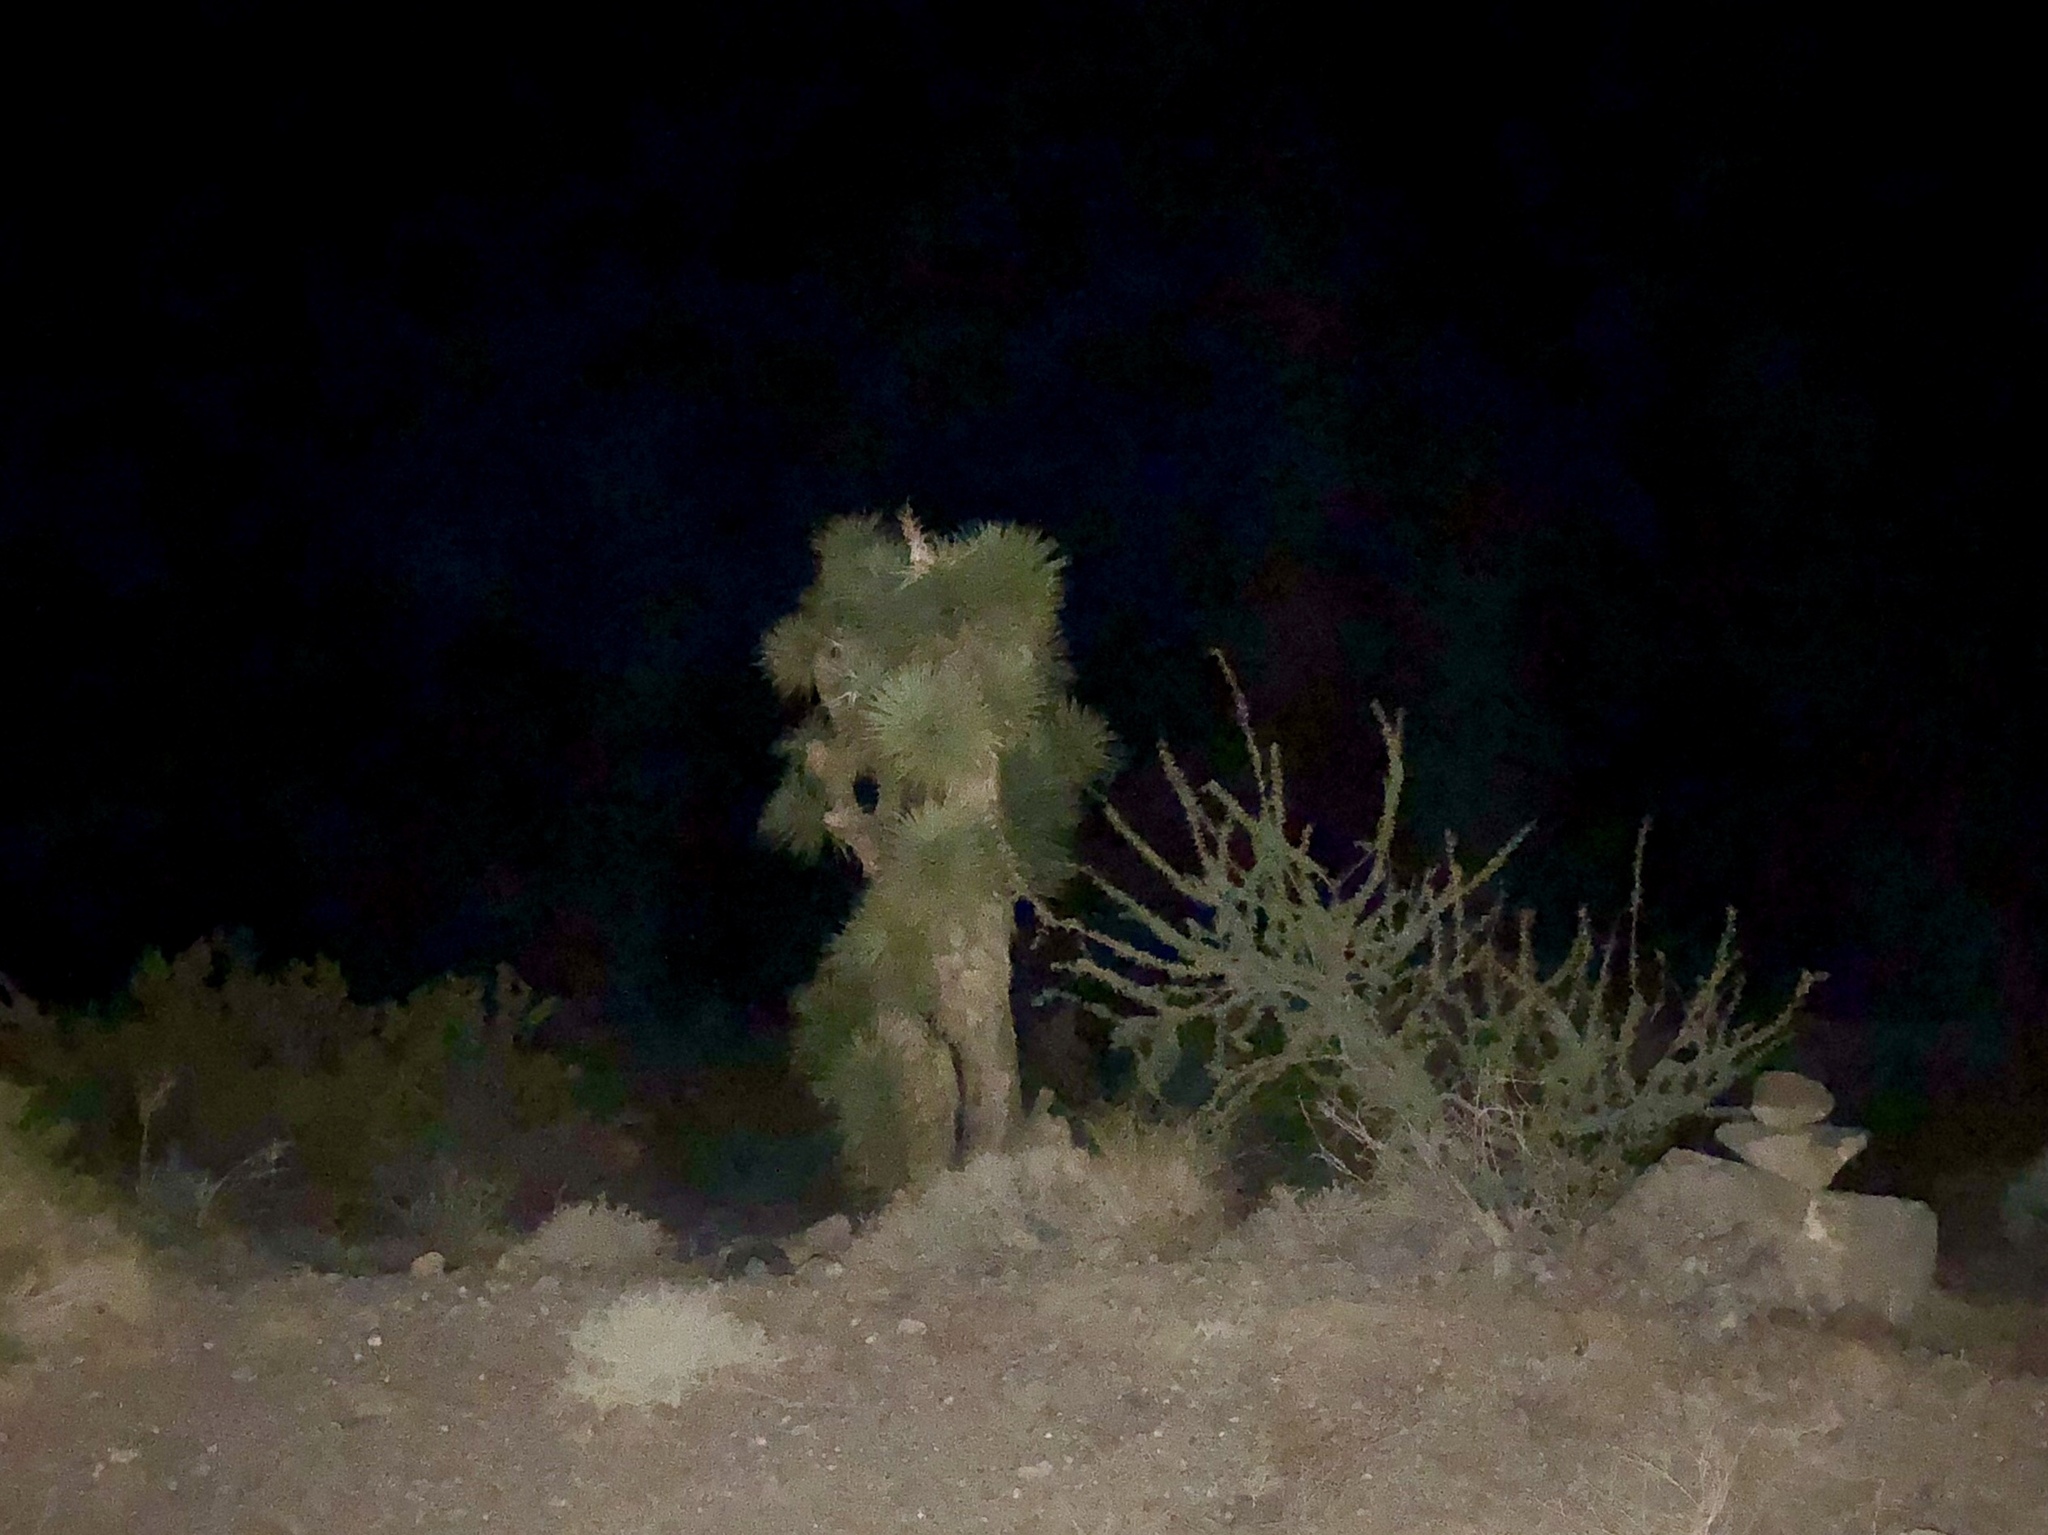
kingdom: Plantae
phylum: Tracheophyta
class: Liliopsida
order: Asparagales
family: Asparagaceae
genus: Yucca
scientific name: Yucca brevifolia
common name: Joshua tree
